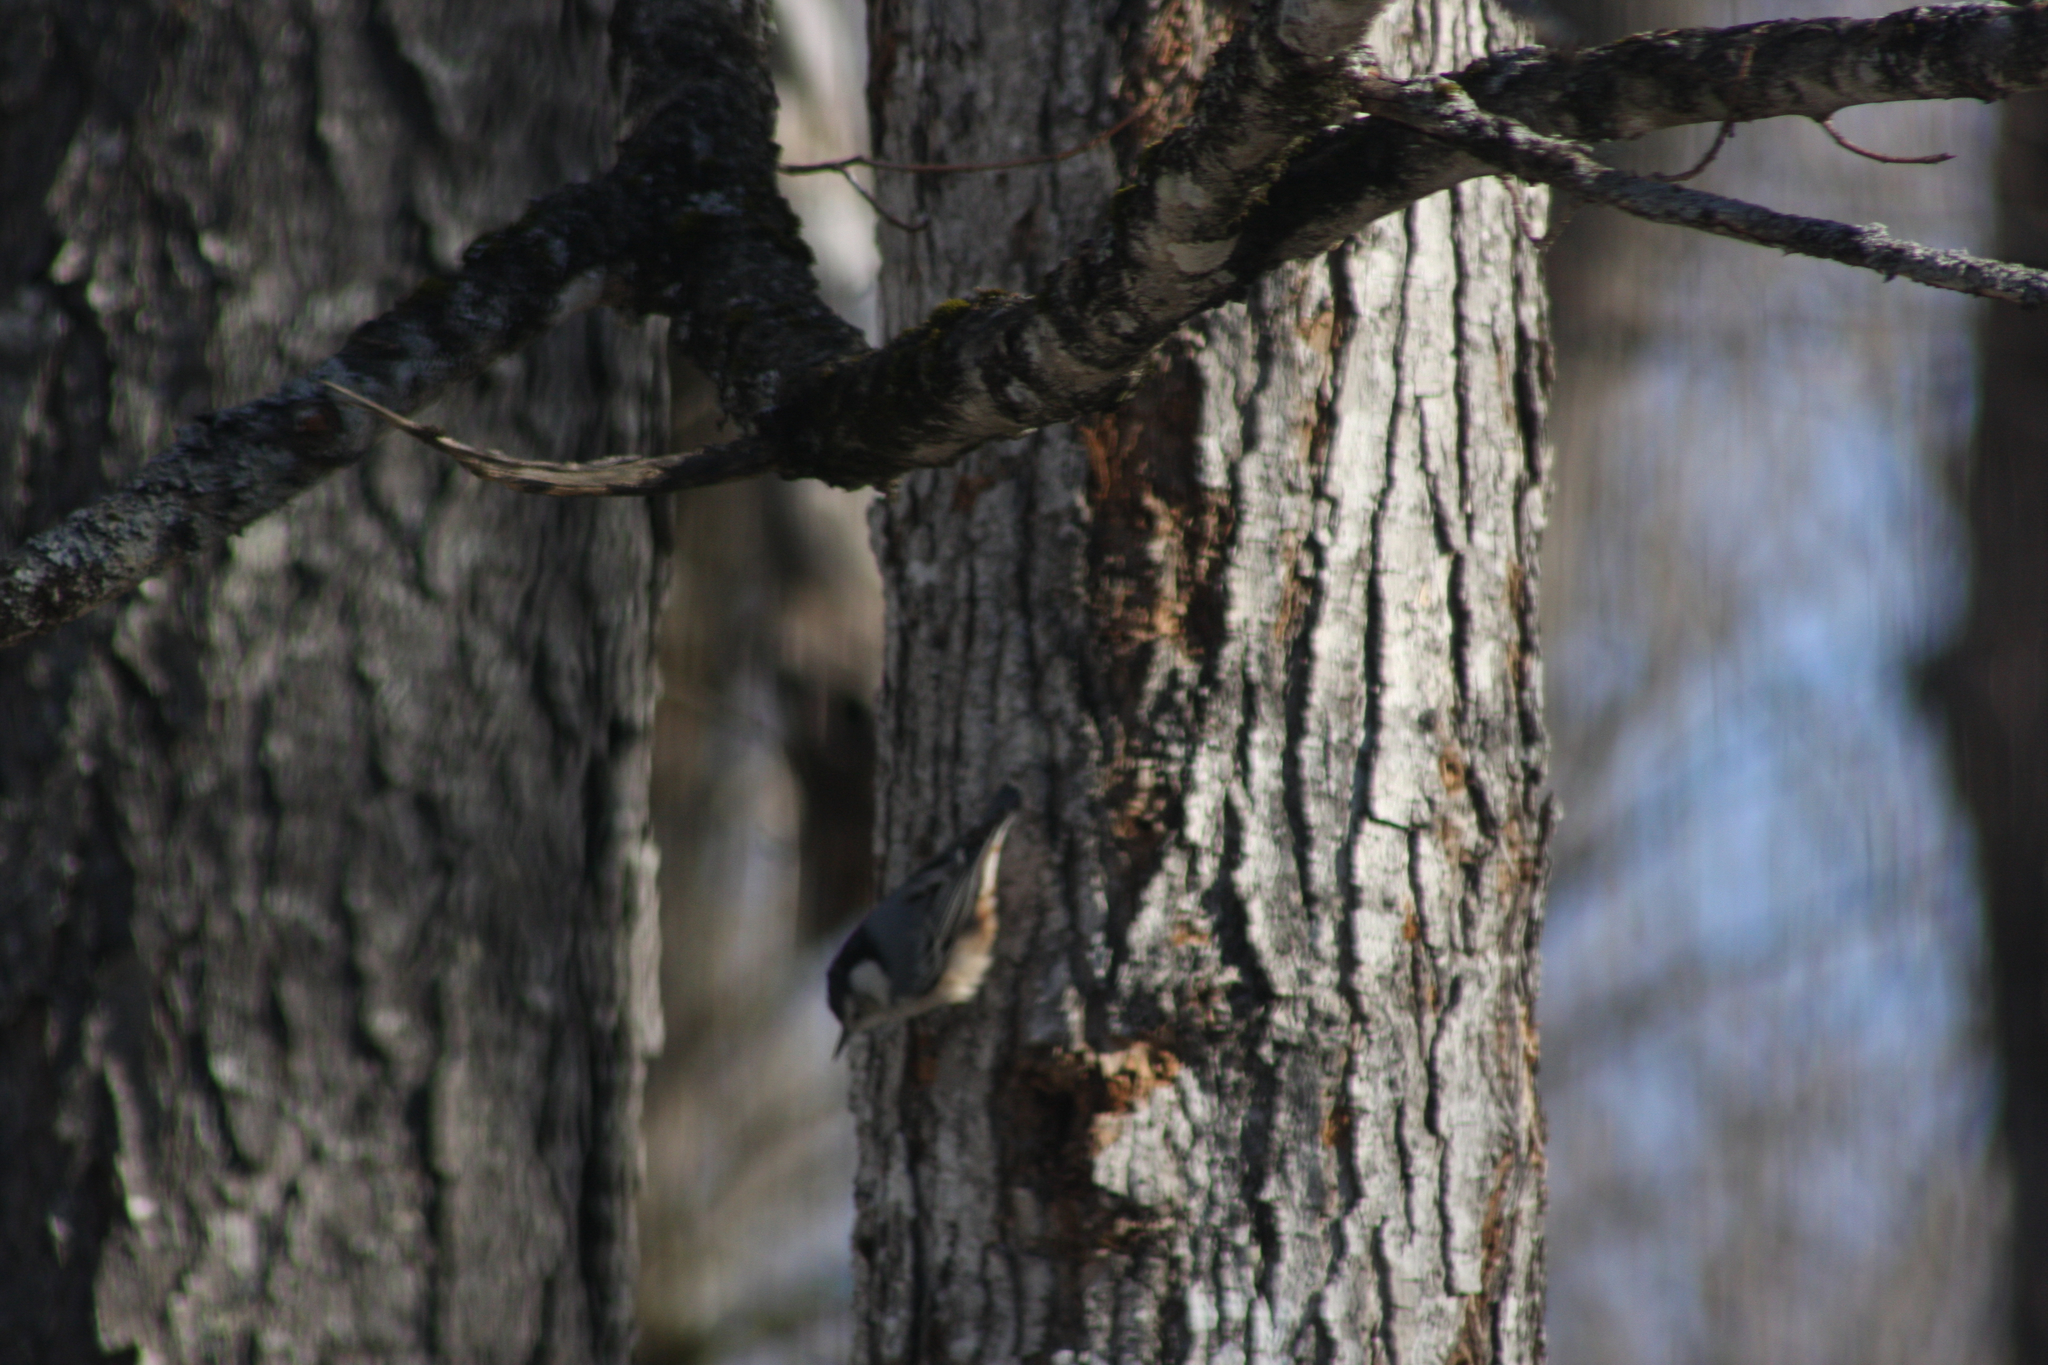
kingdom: Animalia
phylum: Chordata
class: Aves
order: Passeriformes
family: Sittidae
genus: Sitta
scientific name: Sitta carolinensis
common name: White-breasted nuthatch
